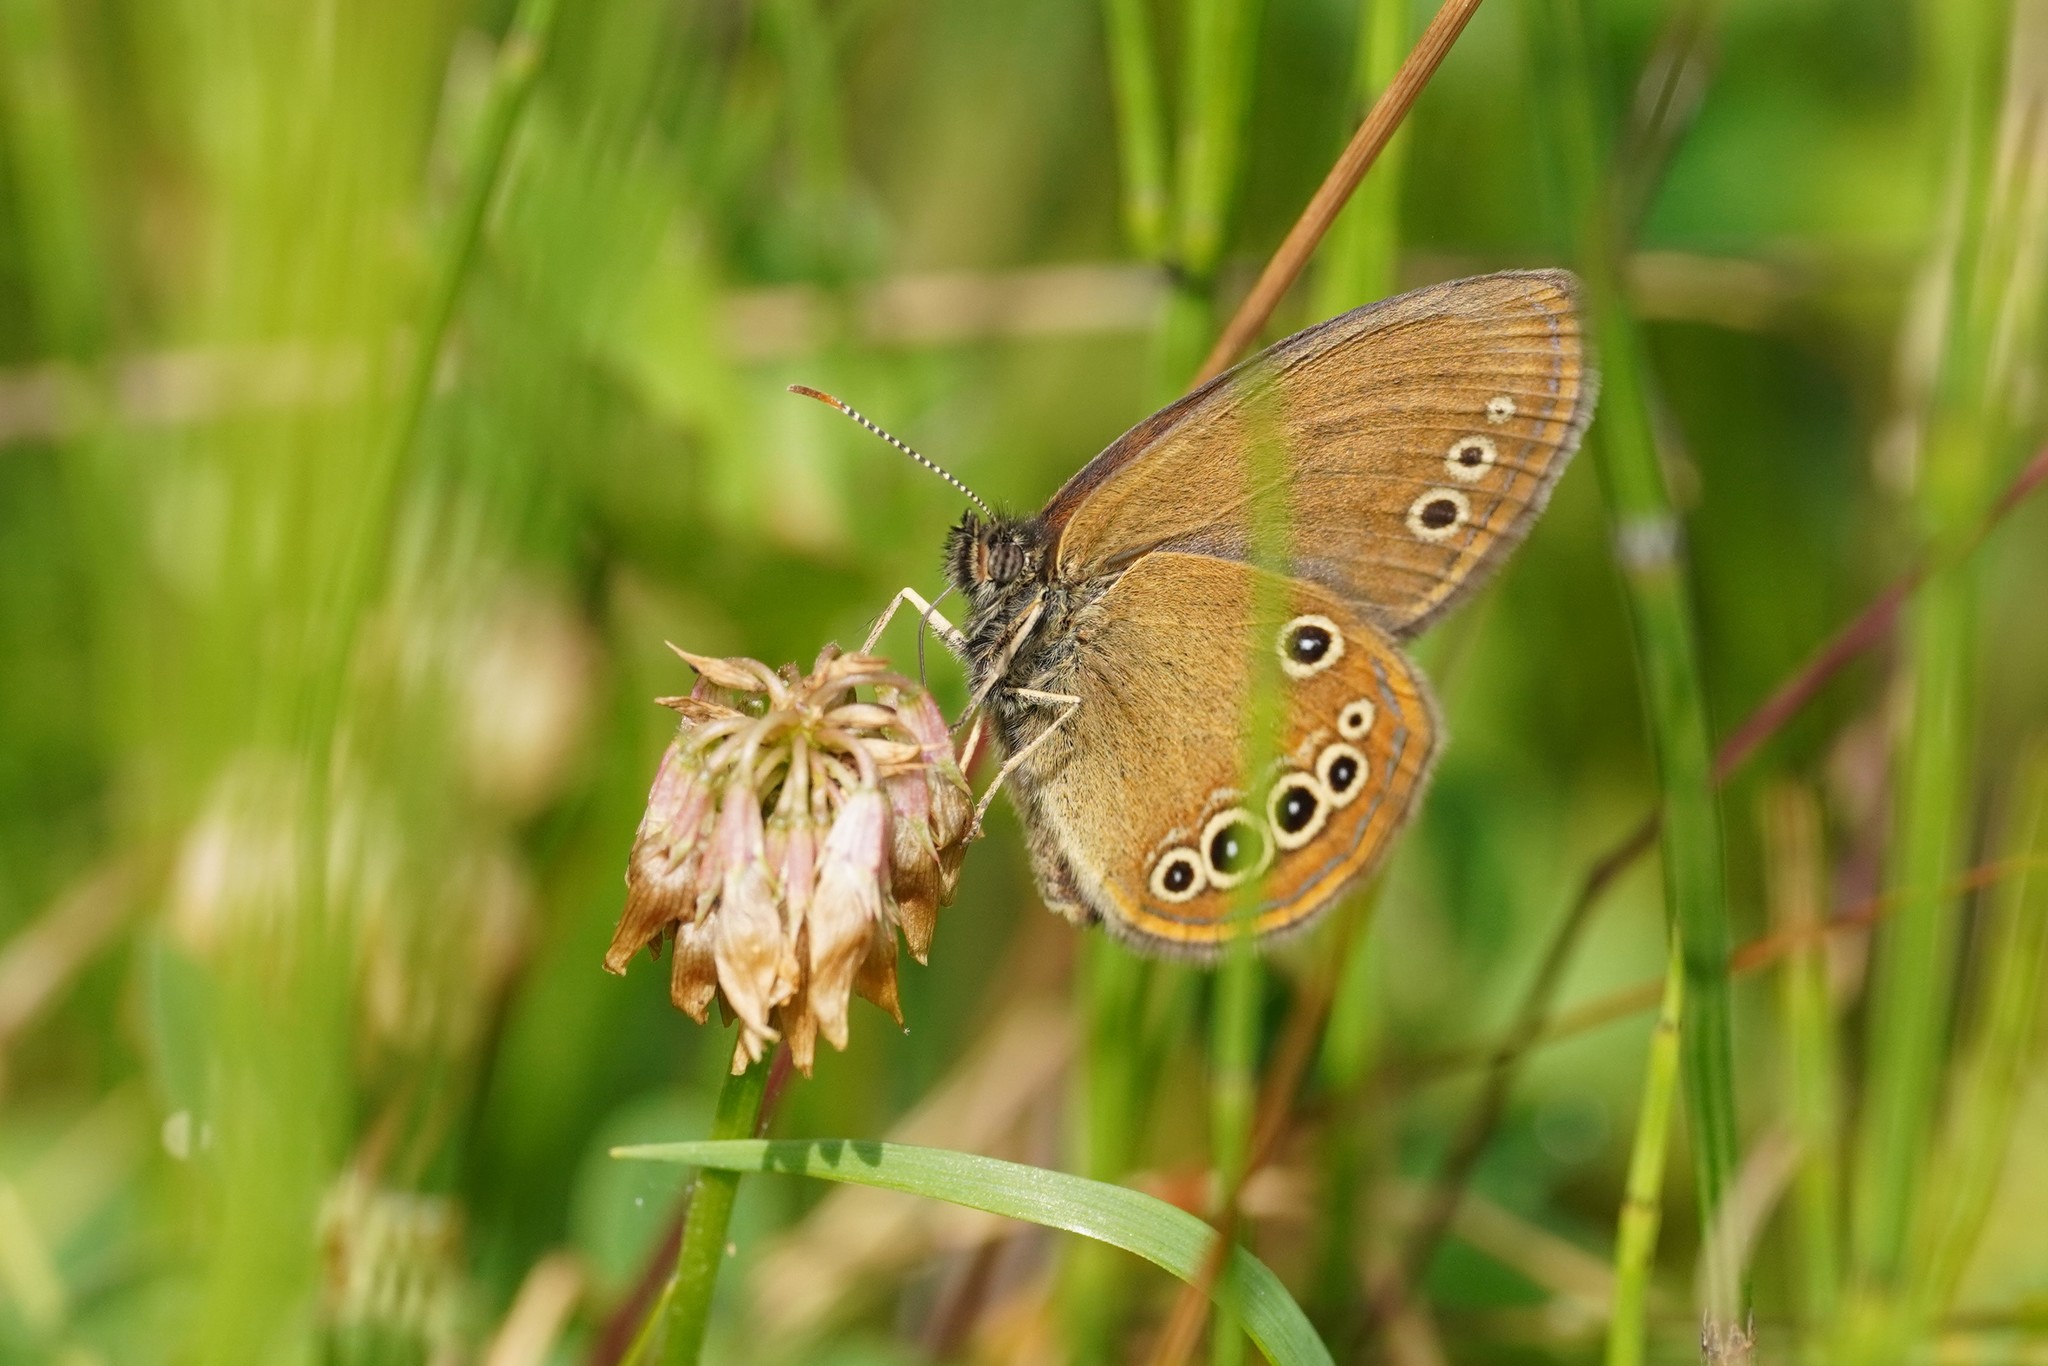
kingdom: Animalia
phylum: Arthropoda
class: Insecta
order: Lepidoptera
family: Nymphalidae
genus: Coenonympha
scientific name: Coenonympha oedippus
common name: False ringlet
